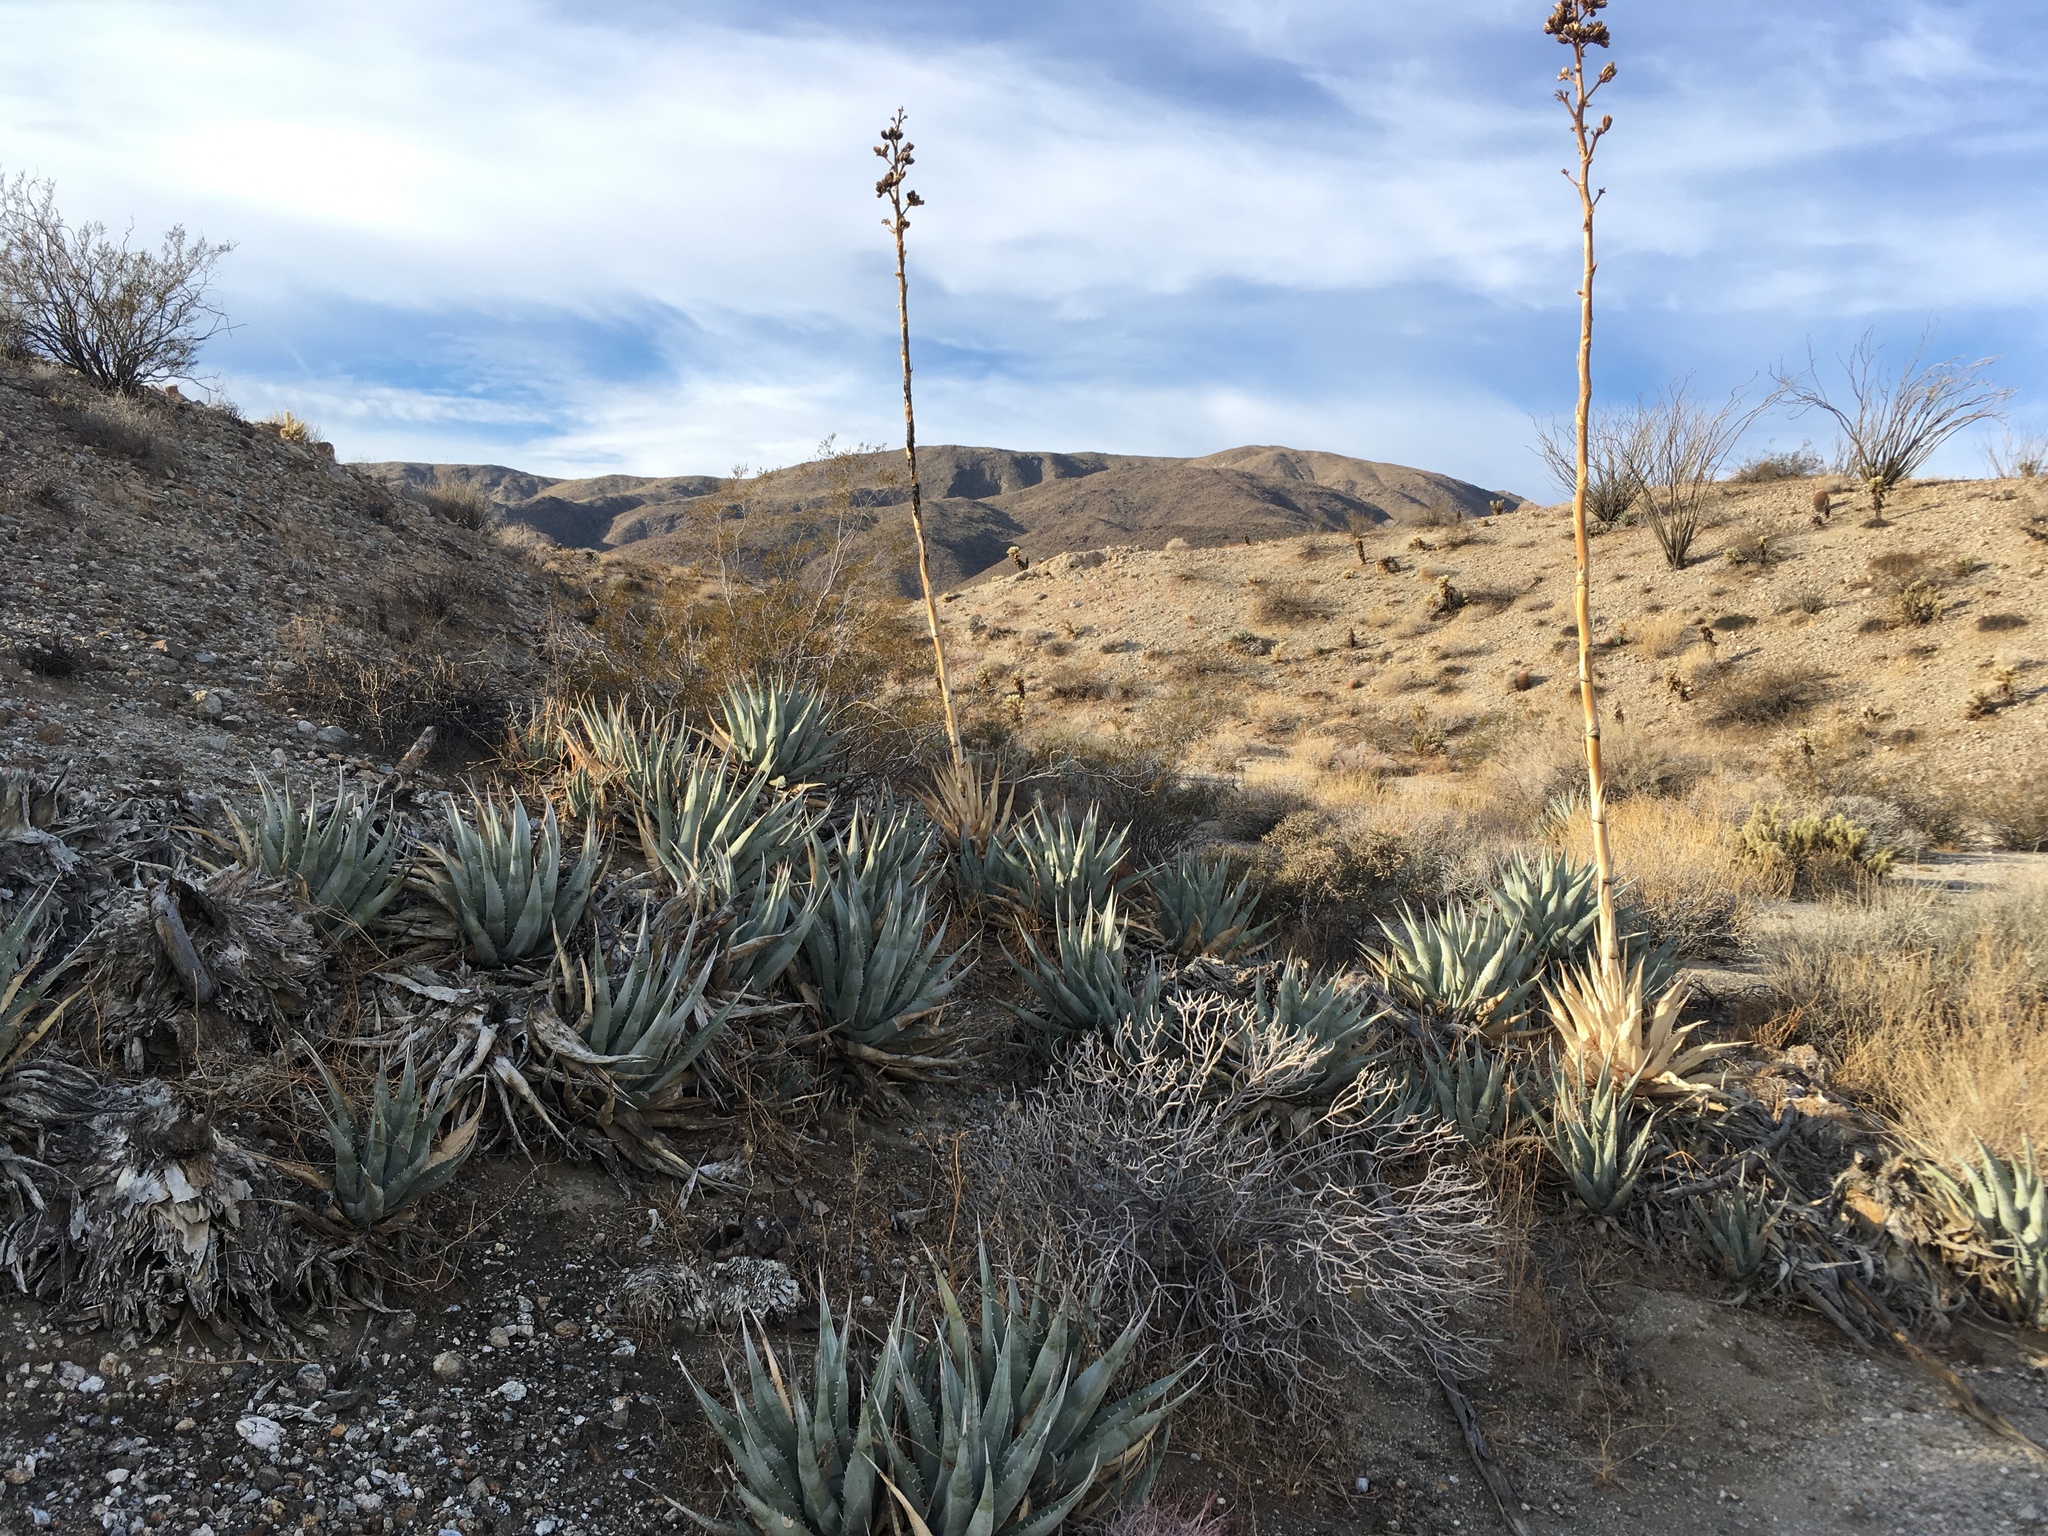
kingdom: Plantae
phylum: Tracheophyta
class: Liliopsida
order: Asparagales
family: Asparagaceae
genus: Agave
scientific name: Agave deserti
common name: Desert agave
